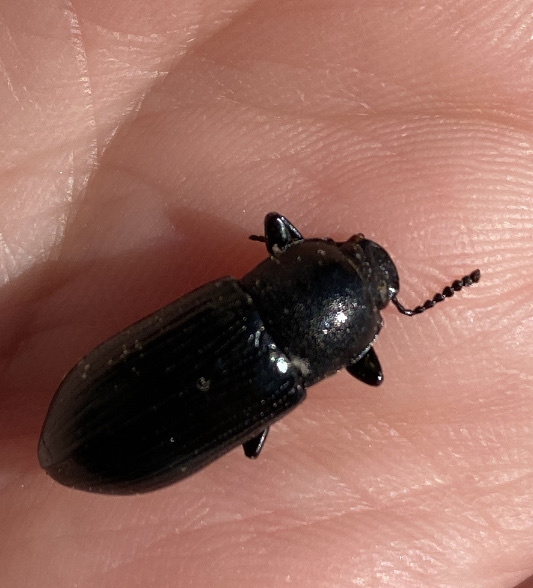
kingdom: Animalia
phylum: Arthropoda
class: Insecta
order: Coleoptera
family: Tenebrionidae
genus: Centronopus
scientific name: Centronopus calcaratus
